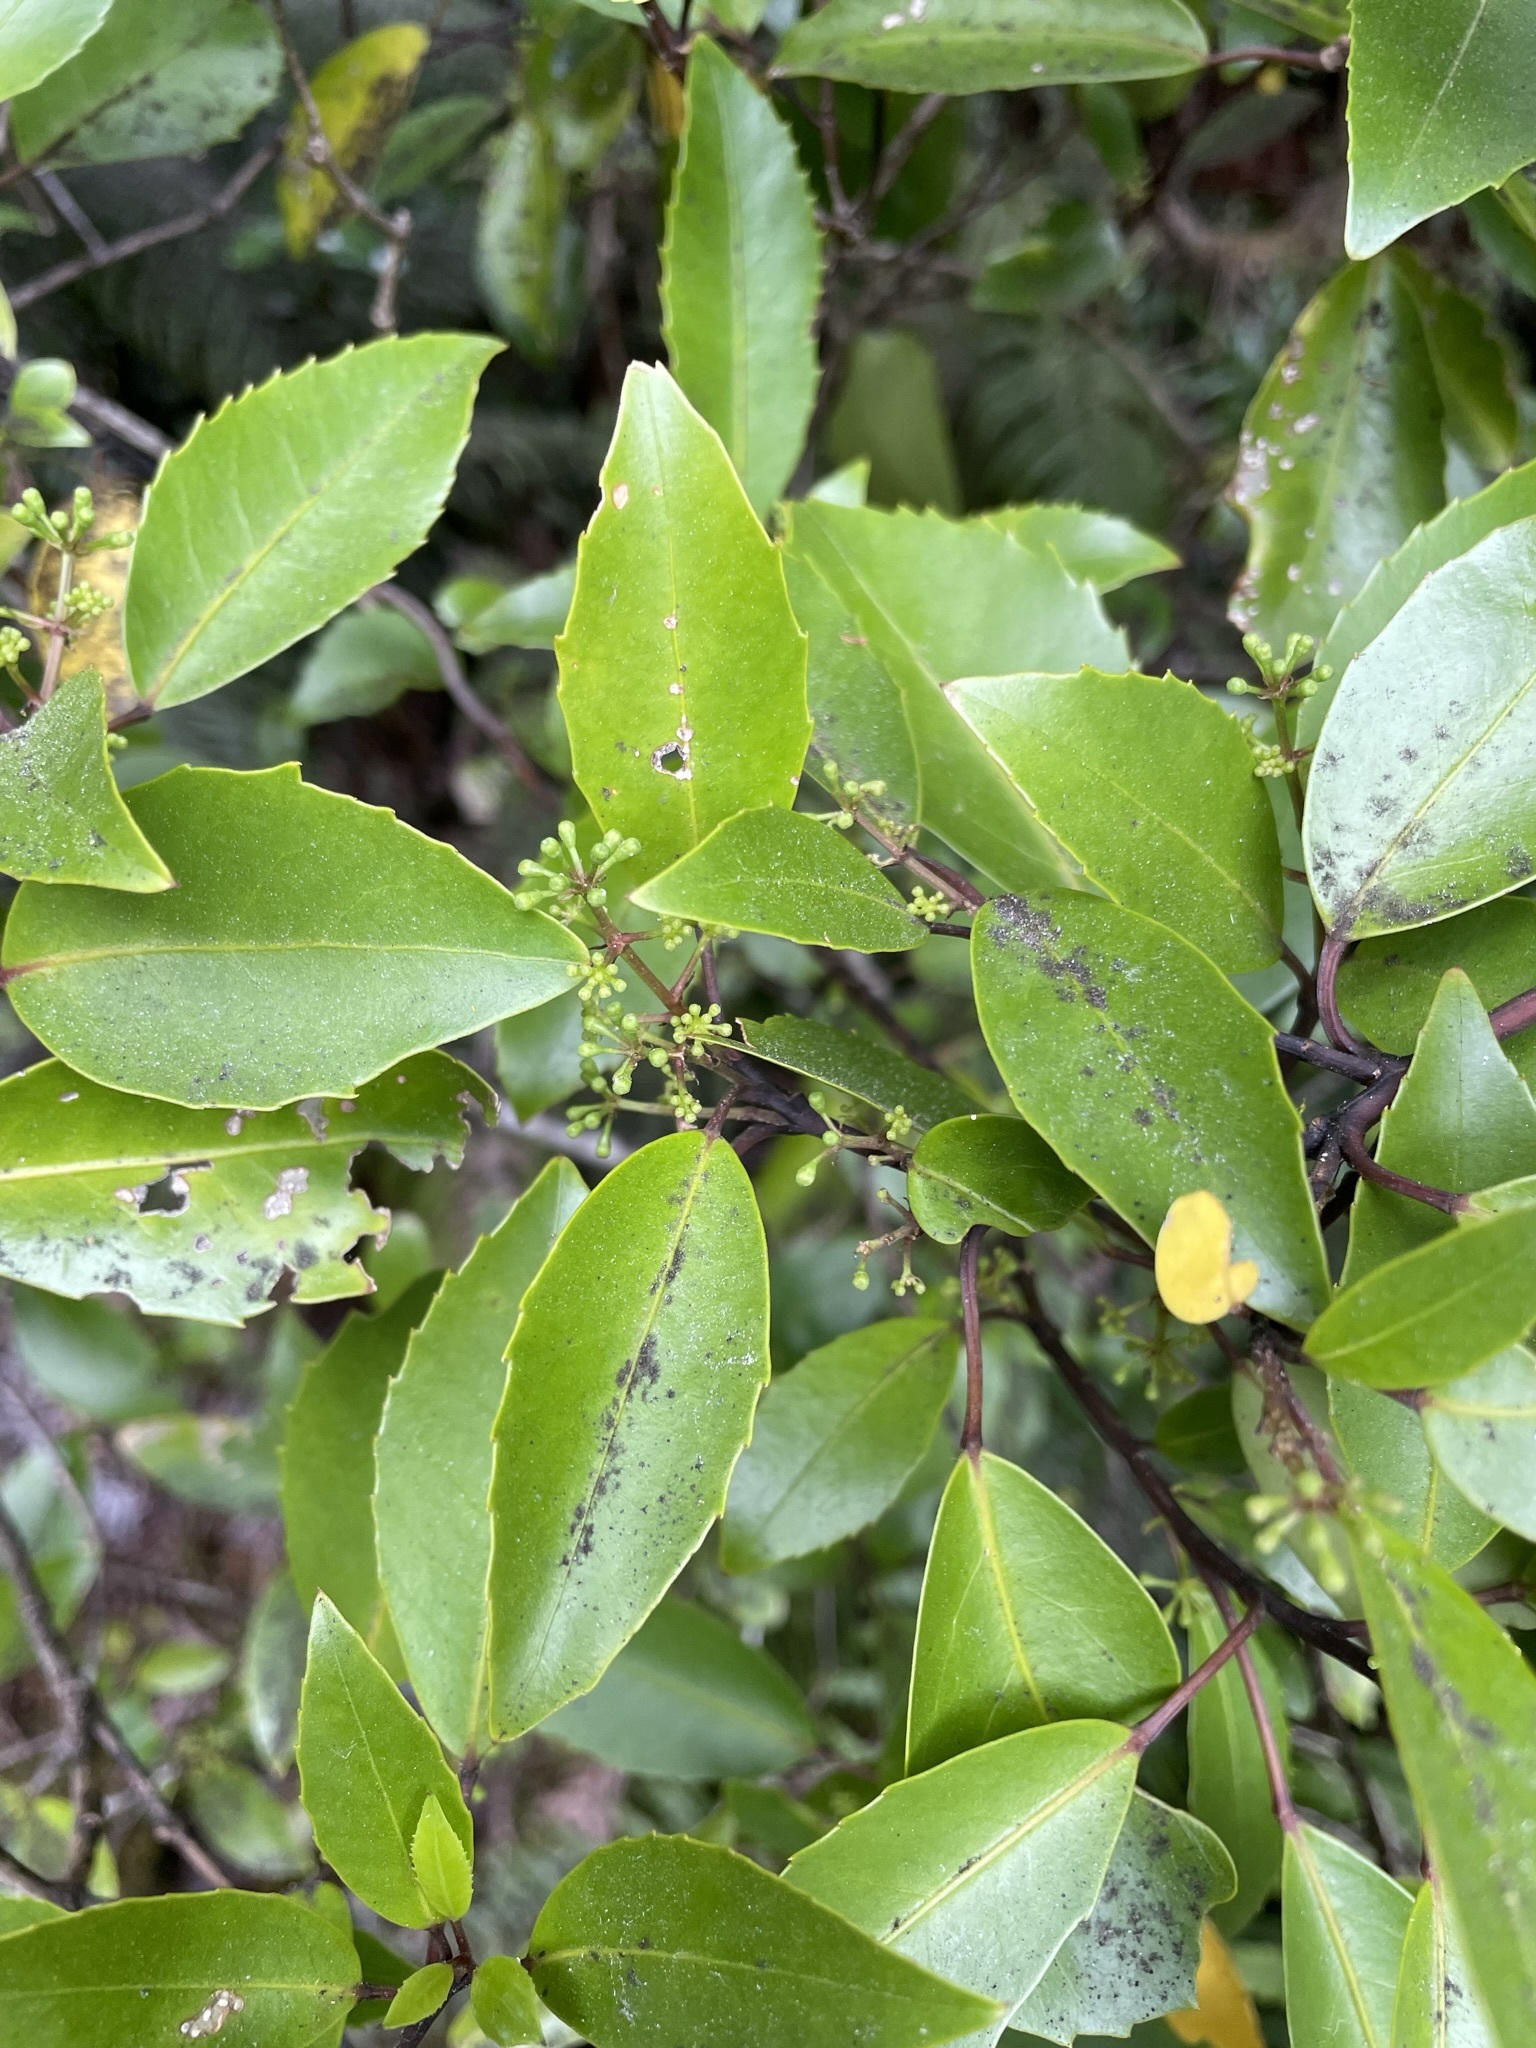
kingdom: Plantae
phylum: Tracheophyta
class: Magnoliopsida
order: Apiales
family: Araliaceae
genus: Raukaua
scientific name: Raukaua simplex
